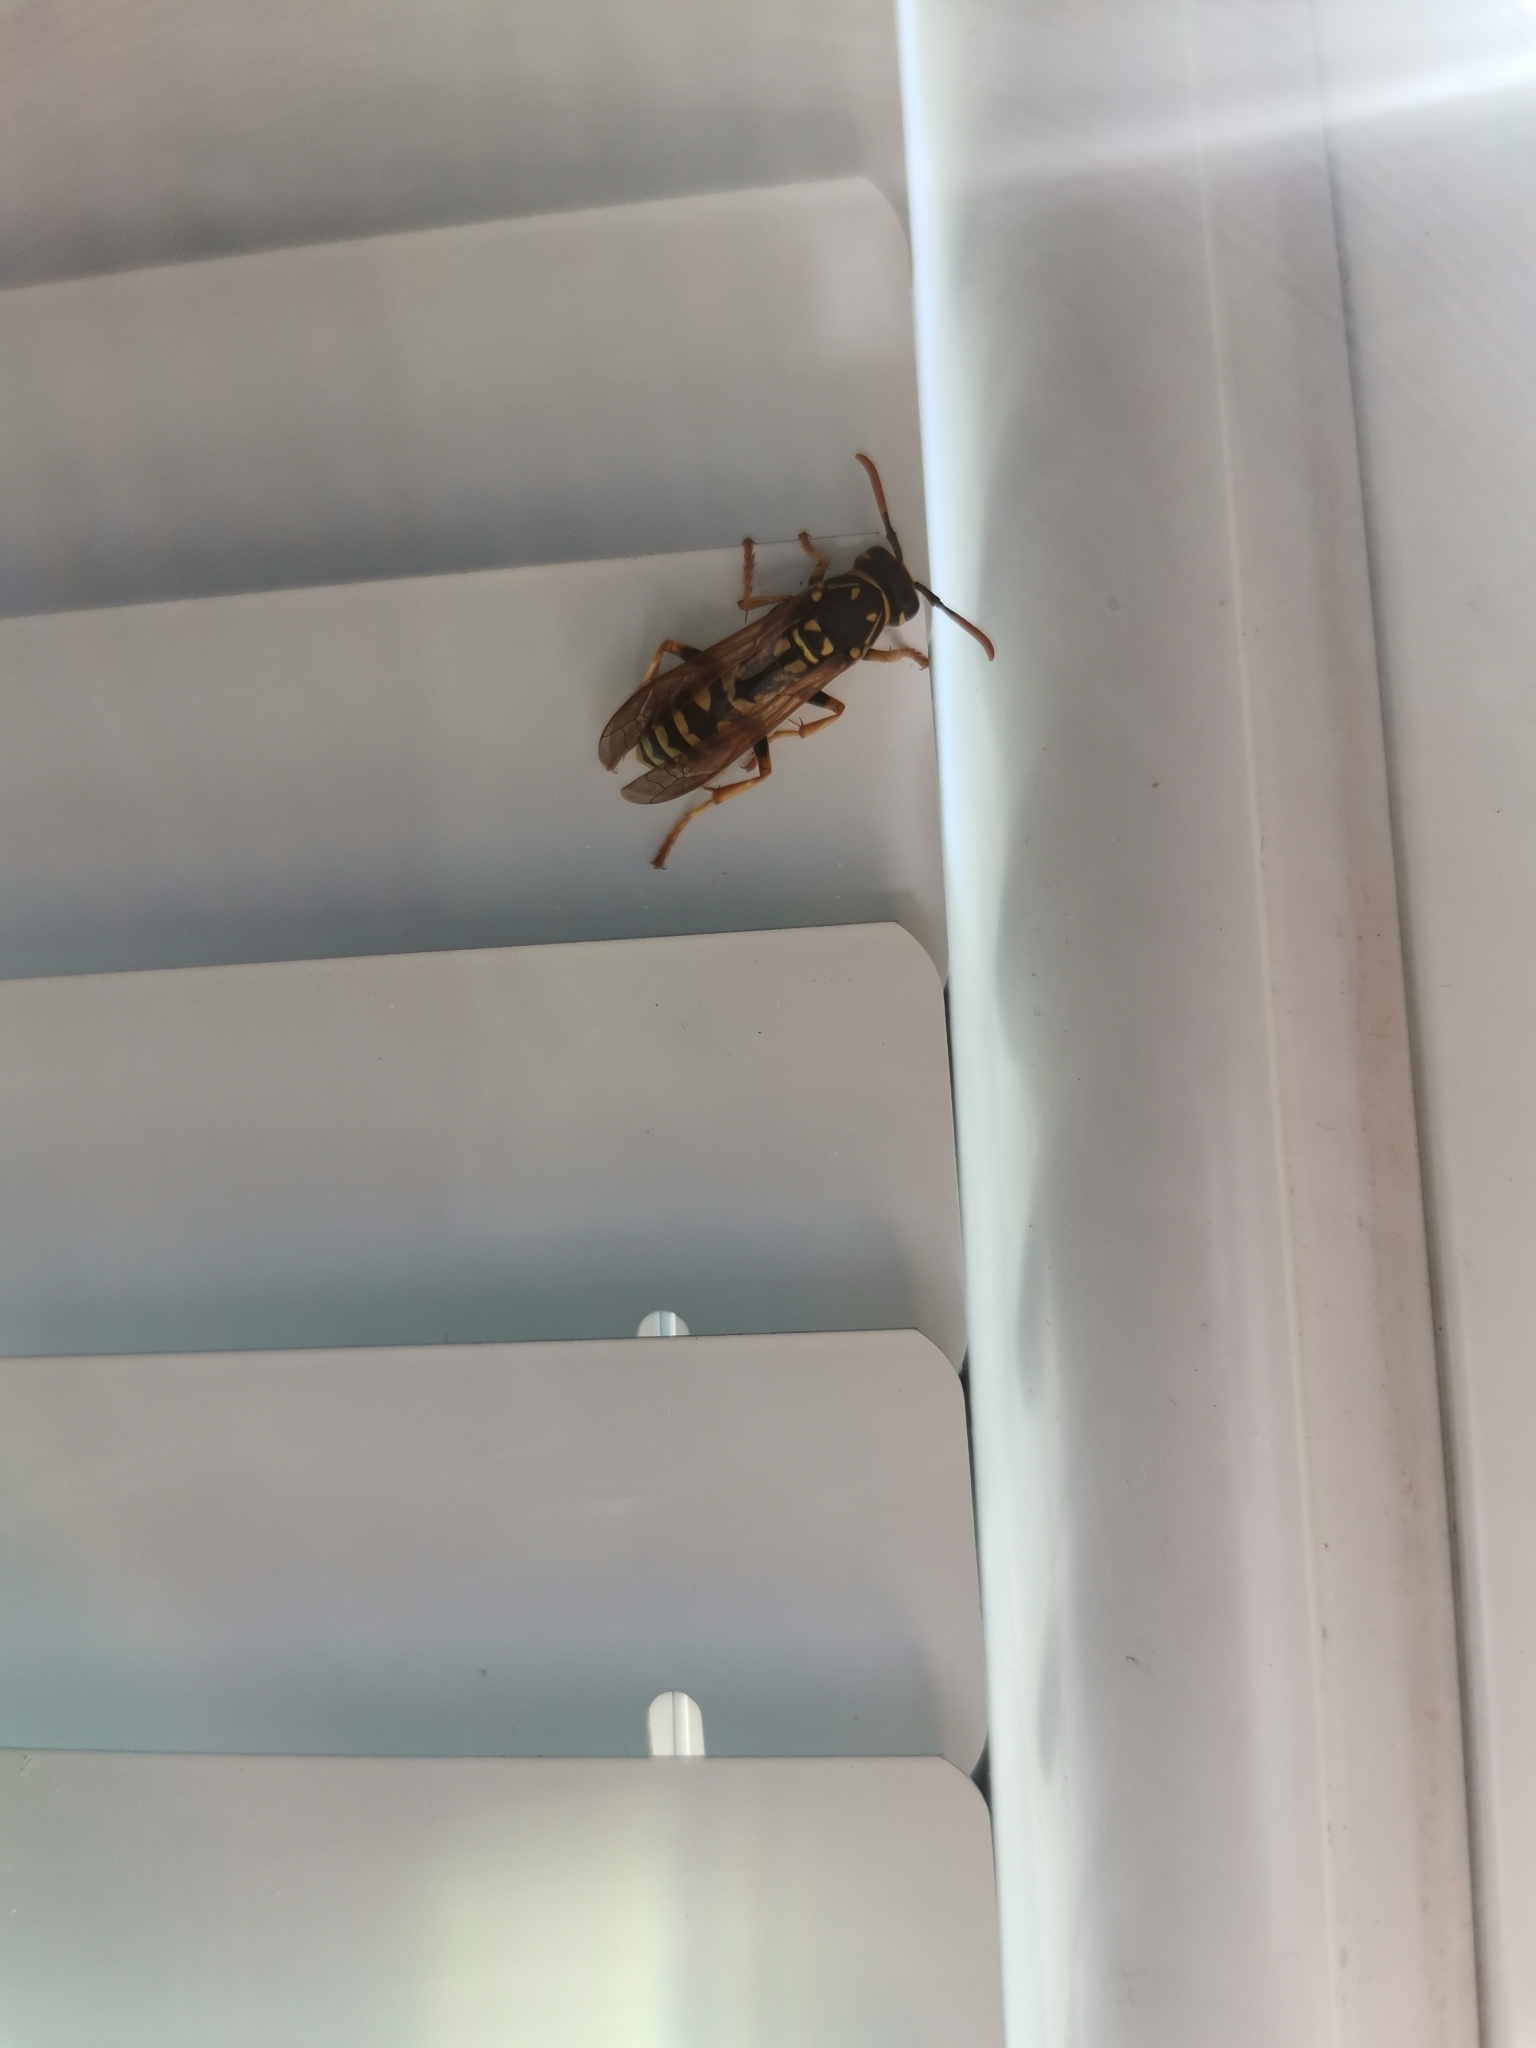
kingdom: Animalia
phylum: Arthropoda
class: Insecta
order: Hymenoptera
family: Eumenidae
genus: Polistes
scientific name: Polistes dominula
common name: Paper wasp
